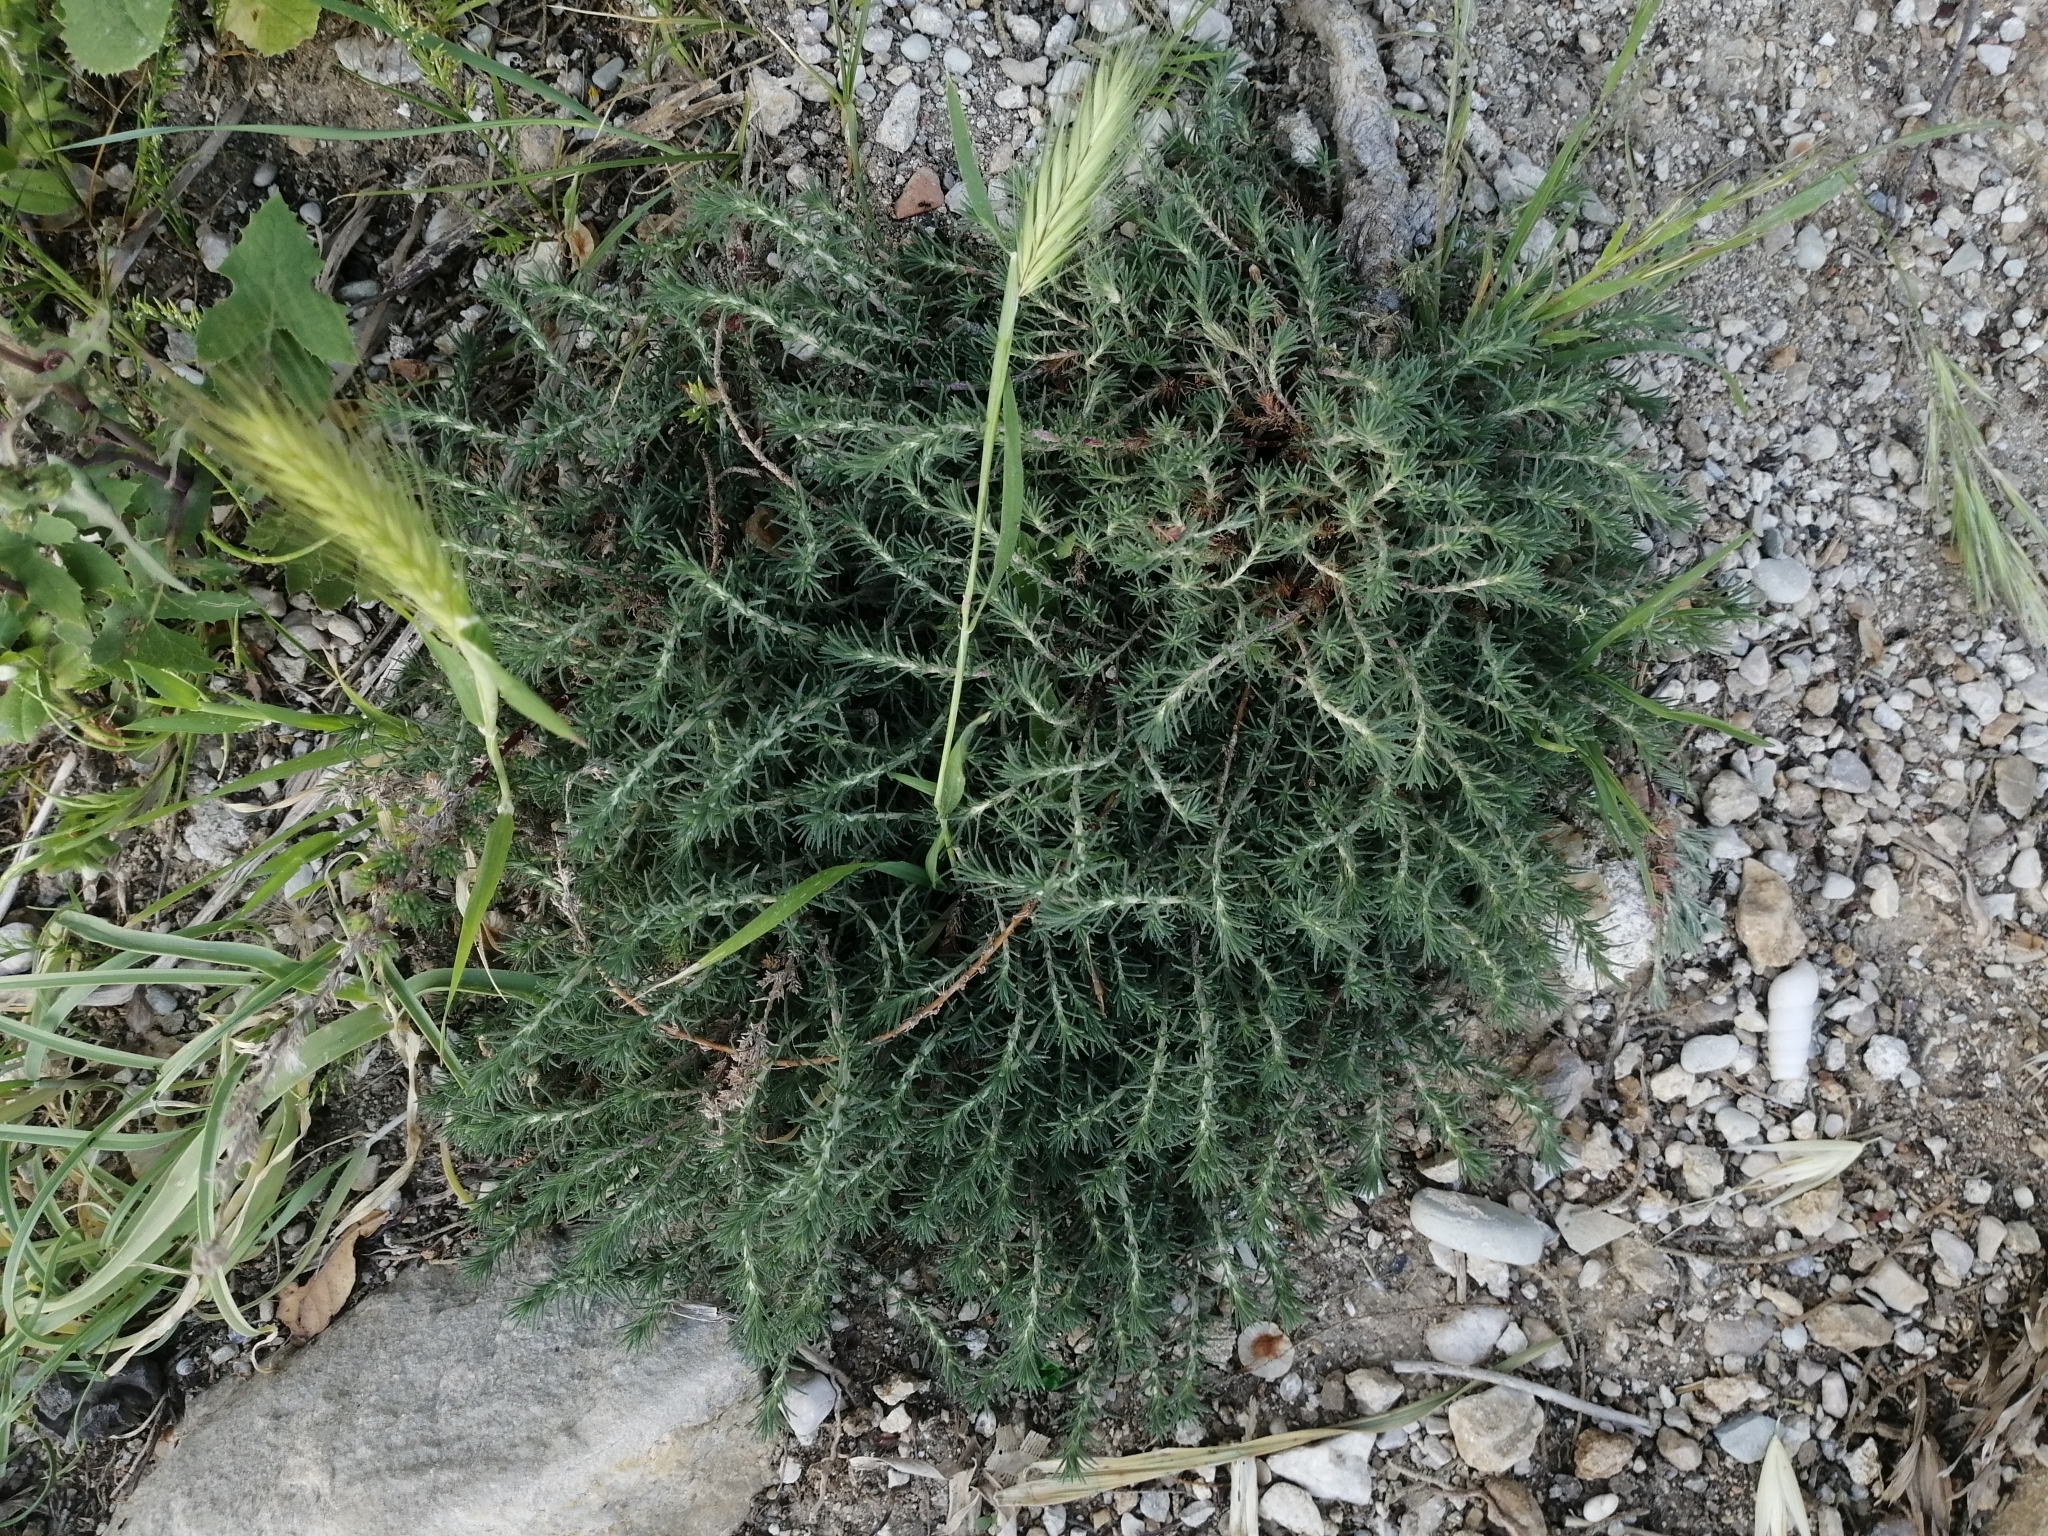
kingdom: Plantae
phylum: Tracheophyta
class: Magnoliopsida
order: Caryophyllales
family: Amaranthaceae
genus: Camphorosma
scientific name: Camphorosma monspeliaca
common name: Camphorfume
